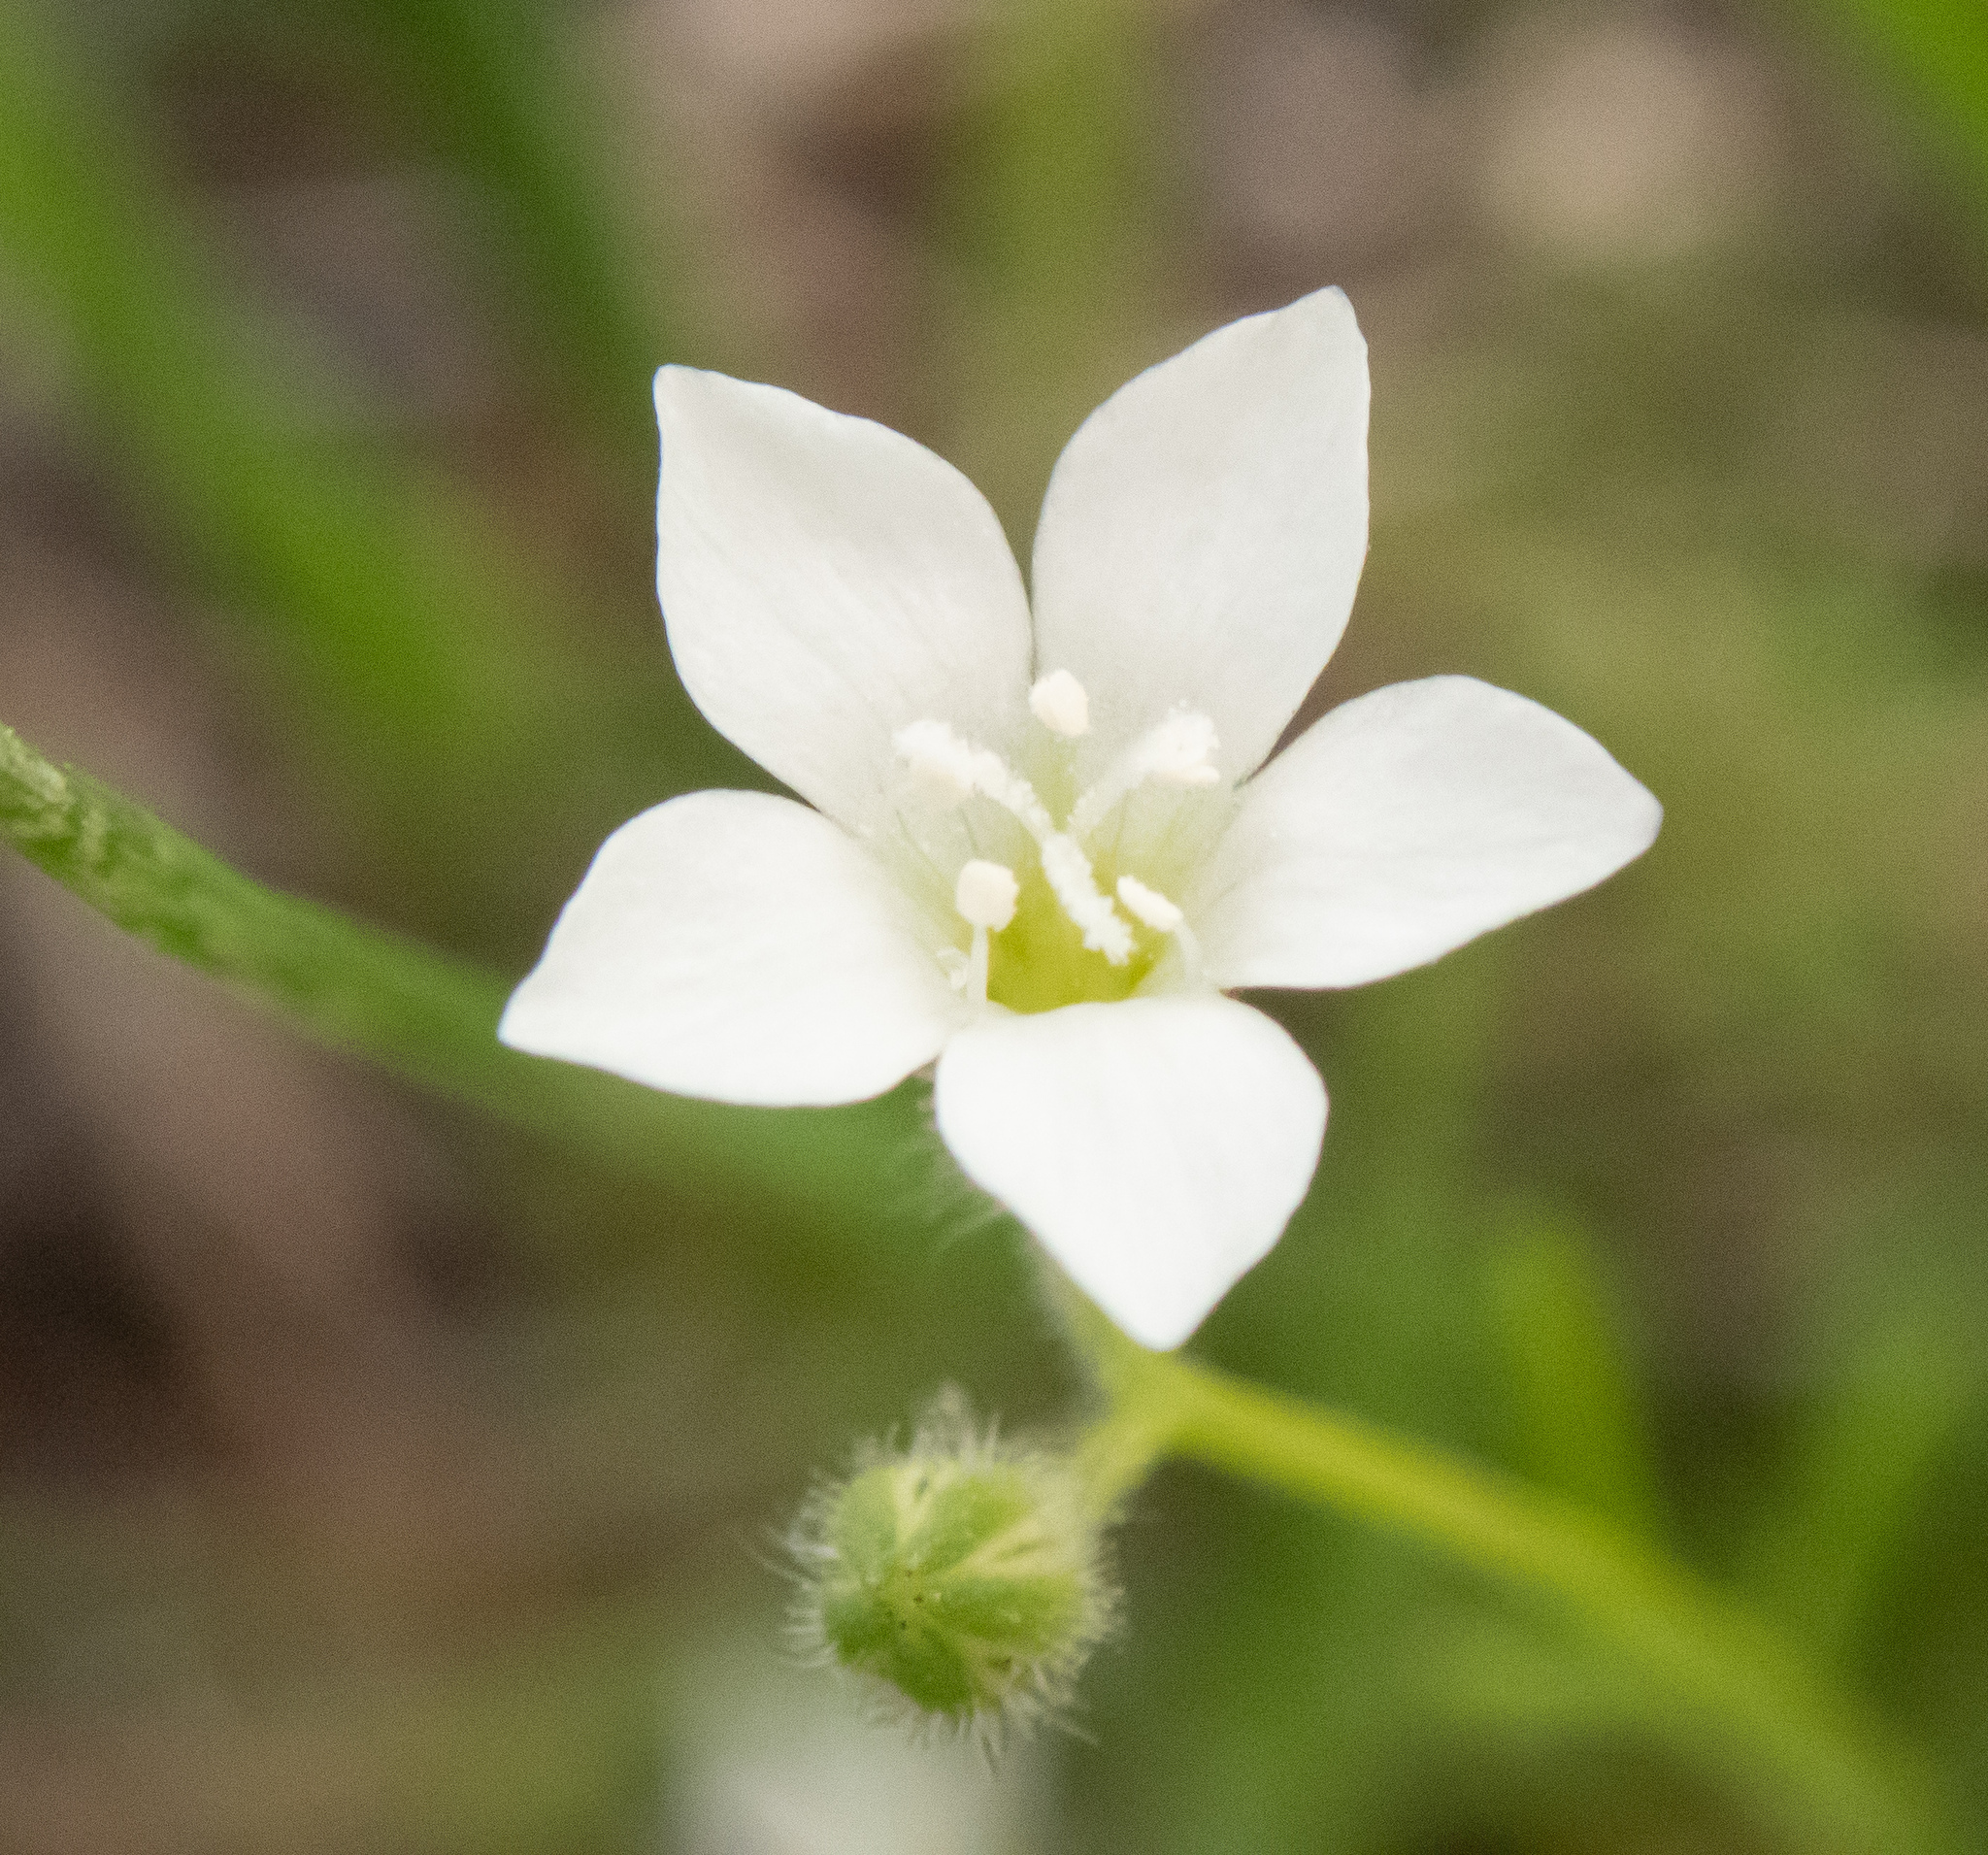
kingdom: Plantae
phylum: Tracheophyta
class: Magnoliopsida
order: Ericales
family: Polemoniaceae
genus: Gilia
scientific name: Gilia angelensis
